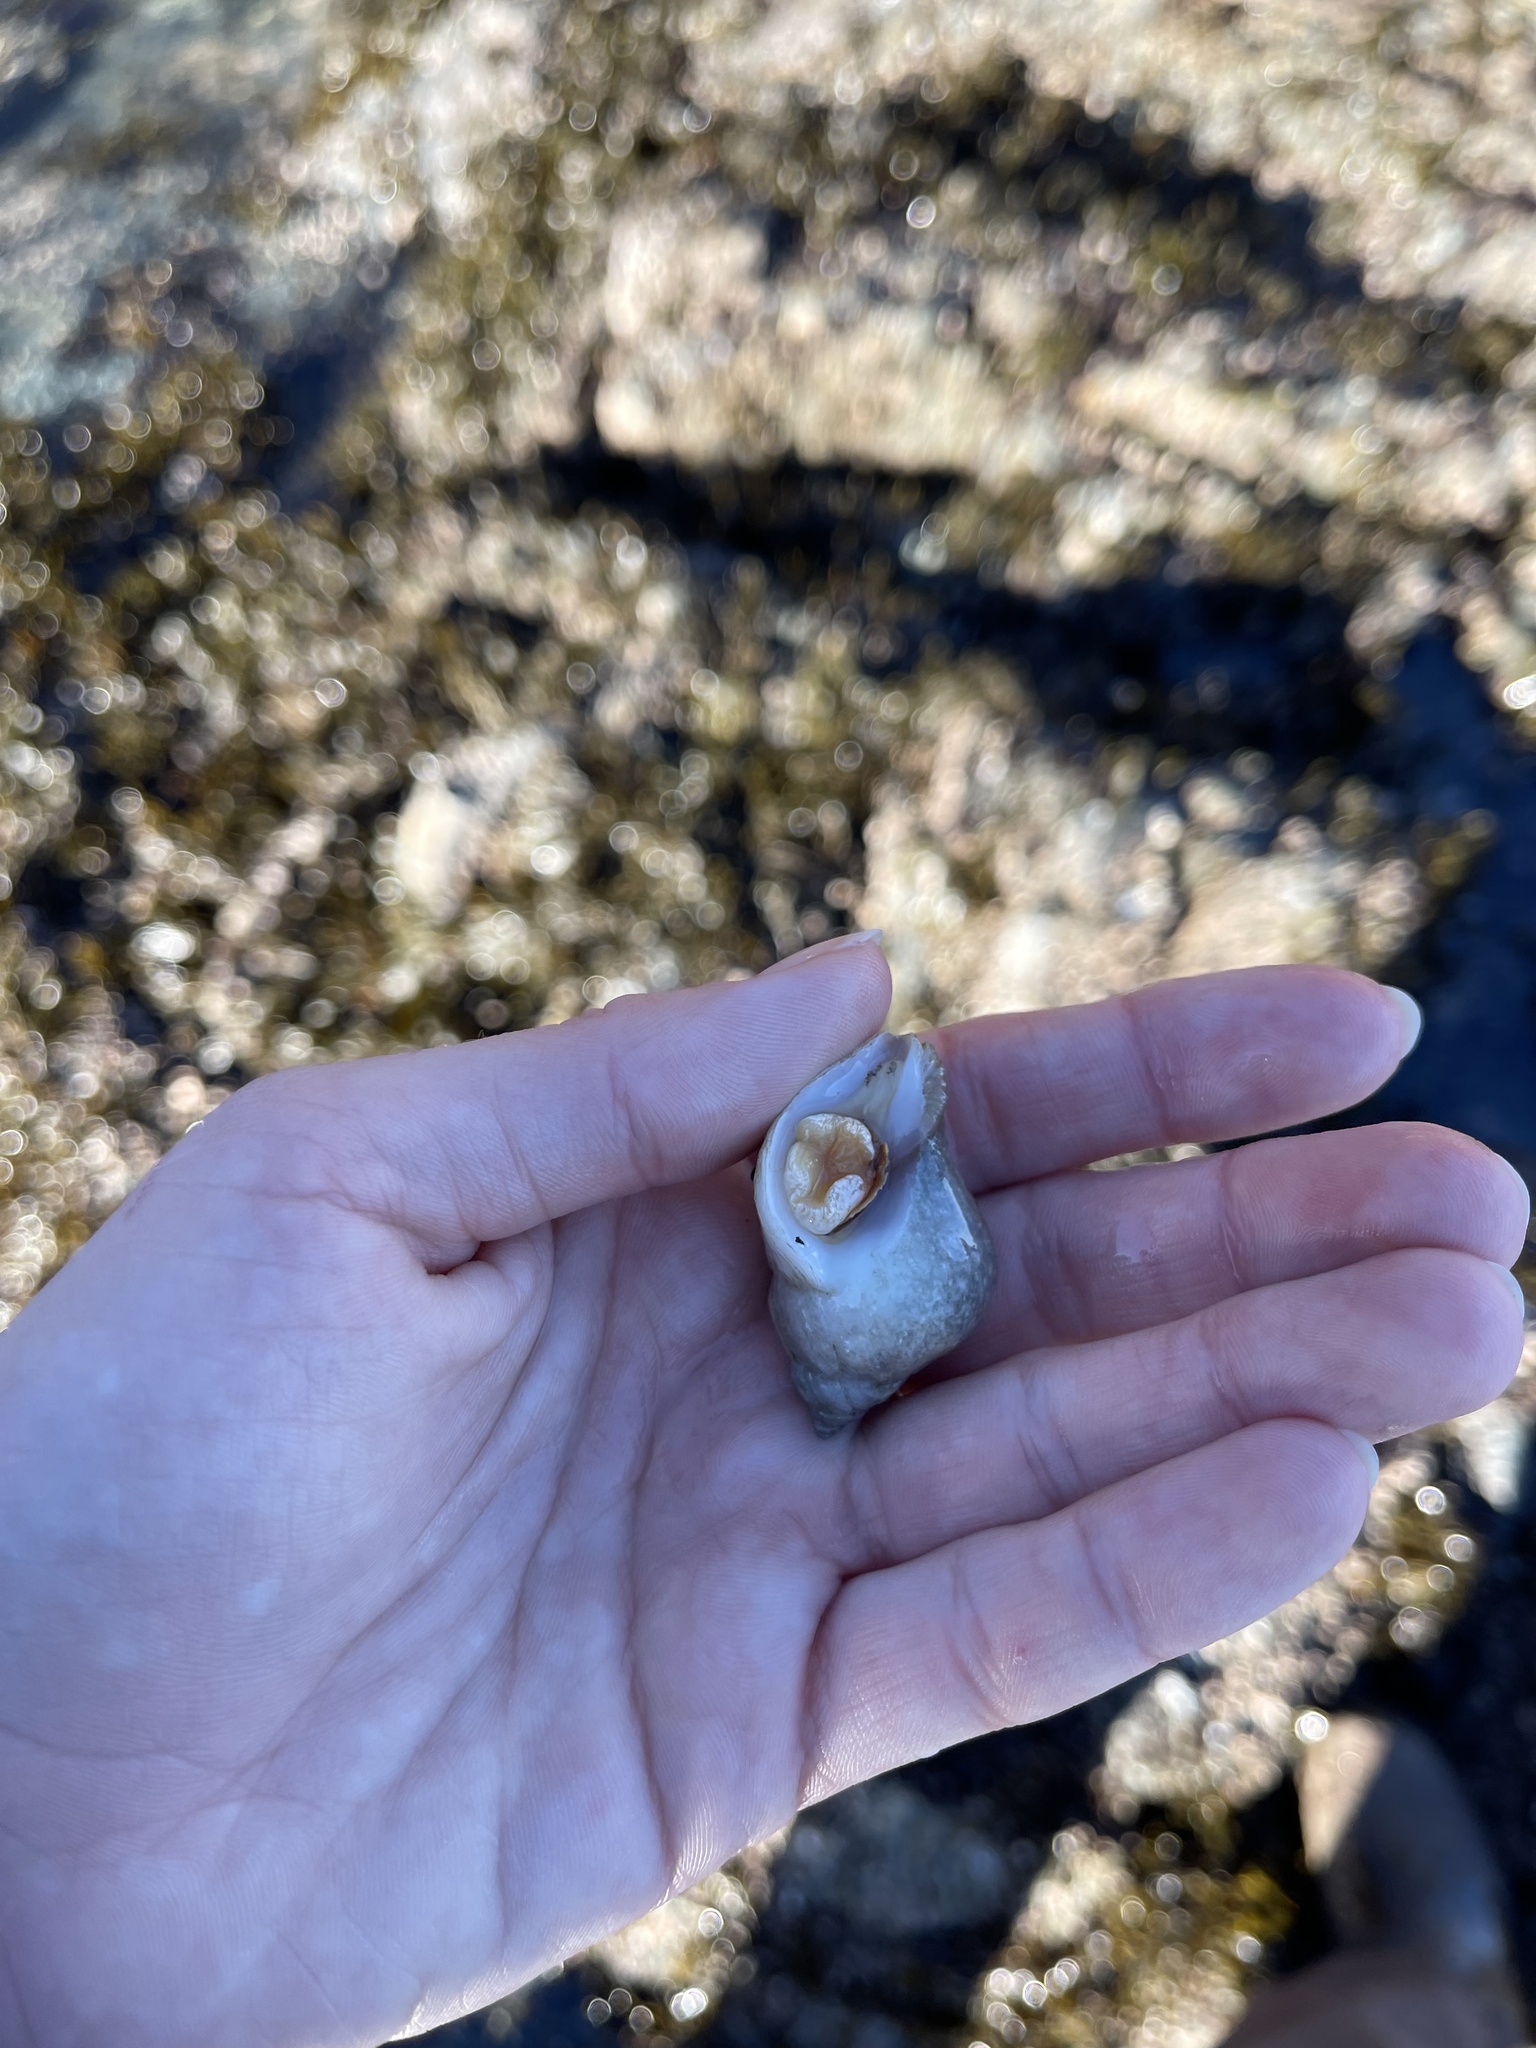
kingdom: Animalia
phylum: Mollusca
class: Gastropoda
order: Neogastropoda
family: Muricidae
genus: Nucella
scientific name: Nucella lamellosa
